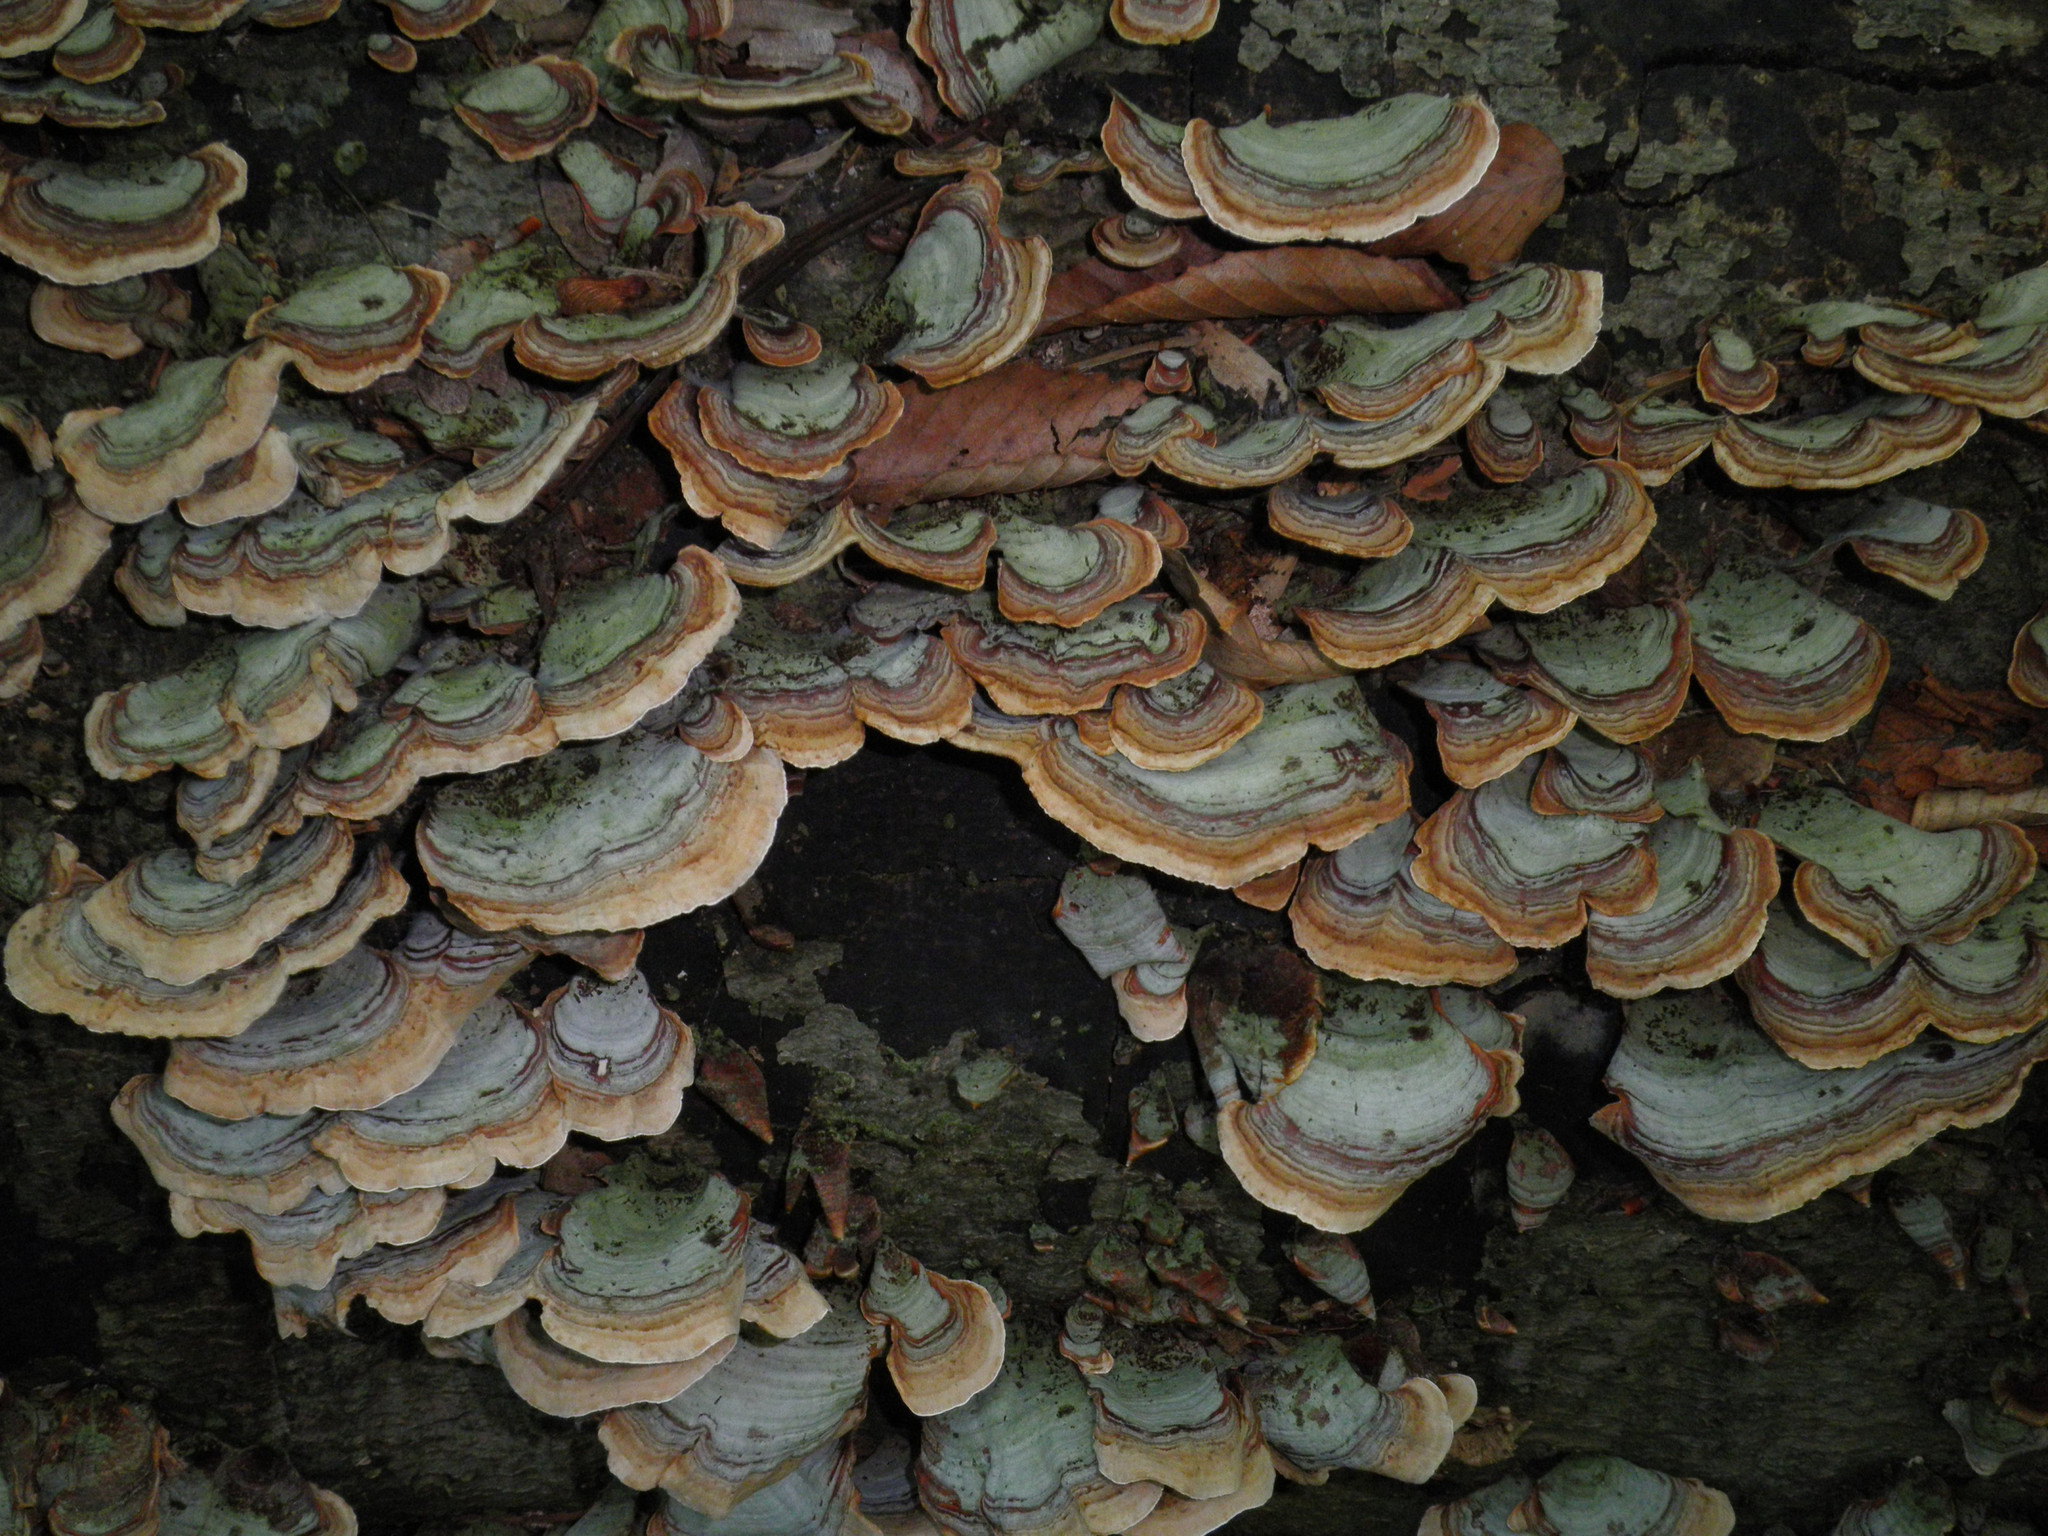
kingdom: Fungi
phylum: Basidiomycota
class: Agaricomycetes
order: Polyporales
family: Polyporaceae
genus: Trametes
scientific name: Trametes versicolor
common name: Turkeytail
